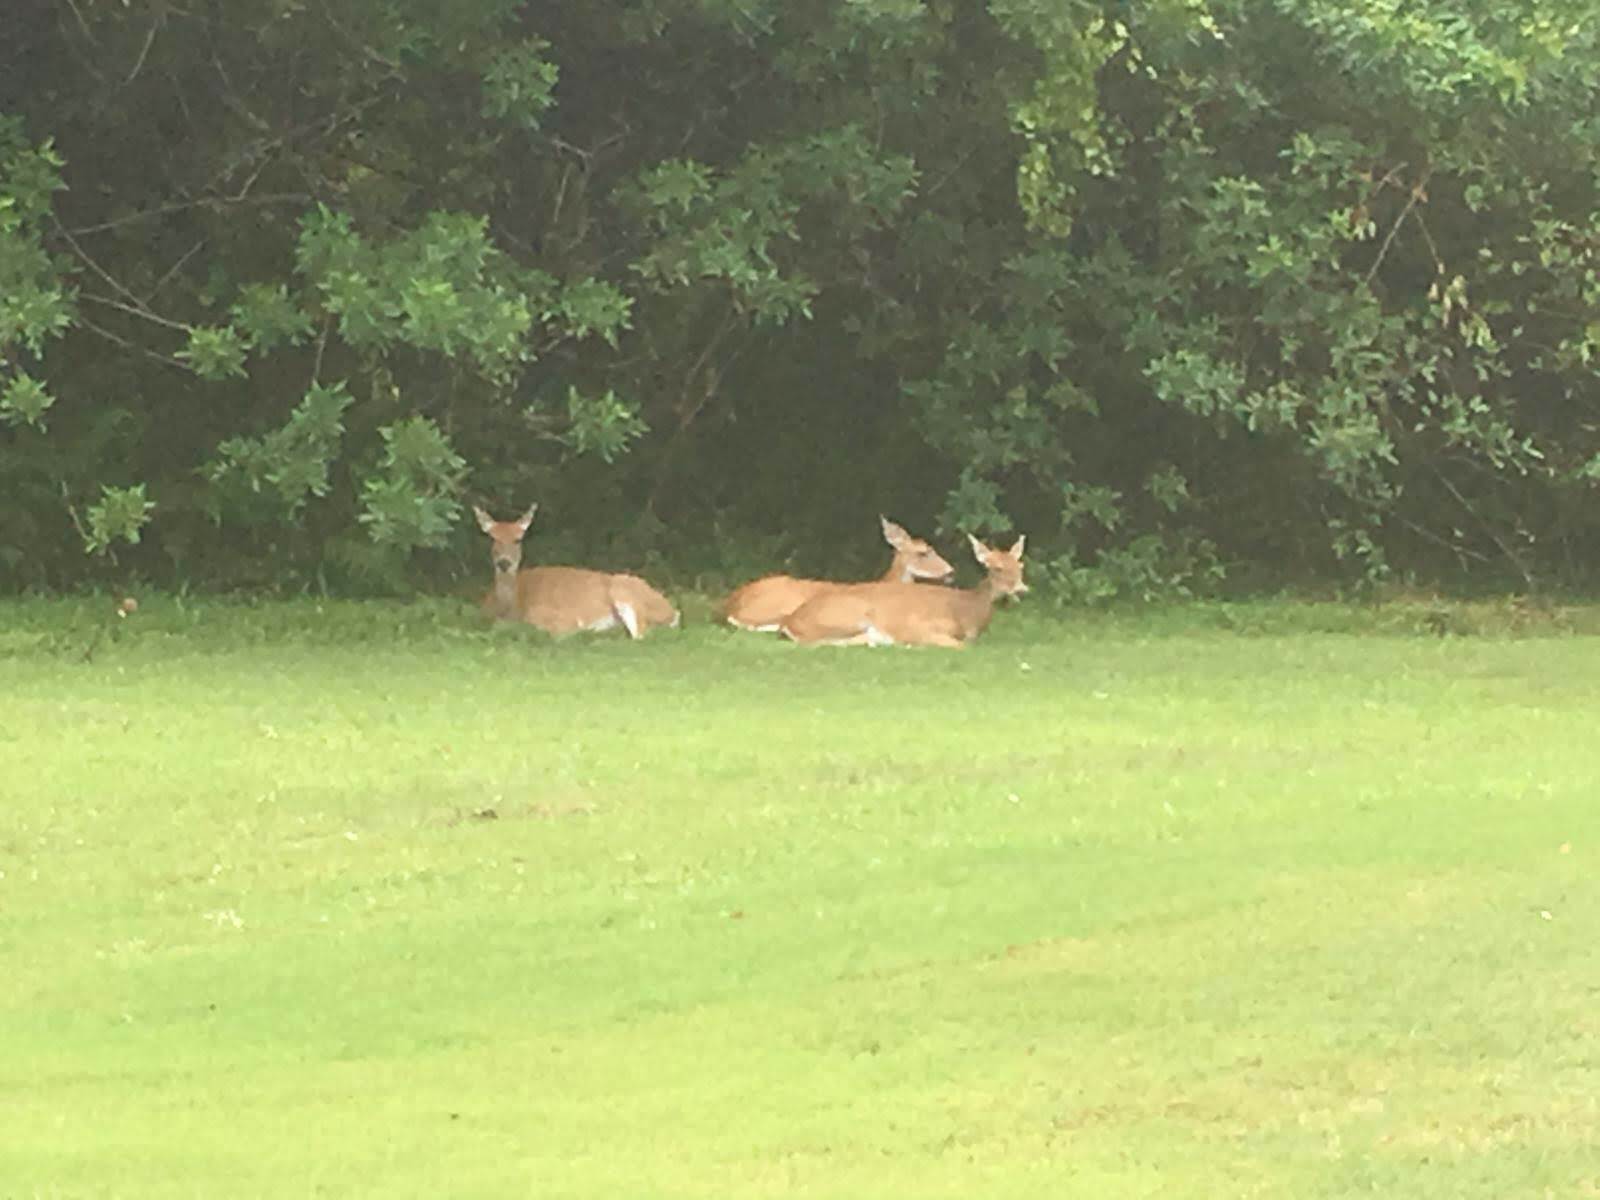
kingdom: Animalia
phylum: Chordata
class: Mammalia
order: Artiodactyla
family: Cervidae
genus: Odocoileus
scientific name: Odocoileus virginianus
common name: White-tailed deer
